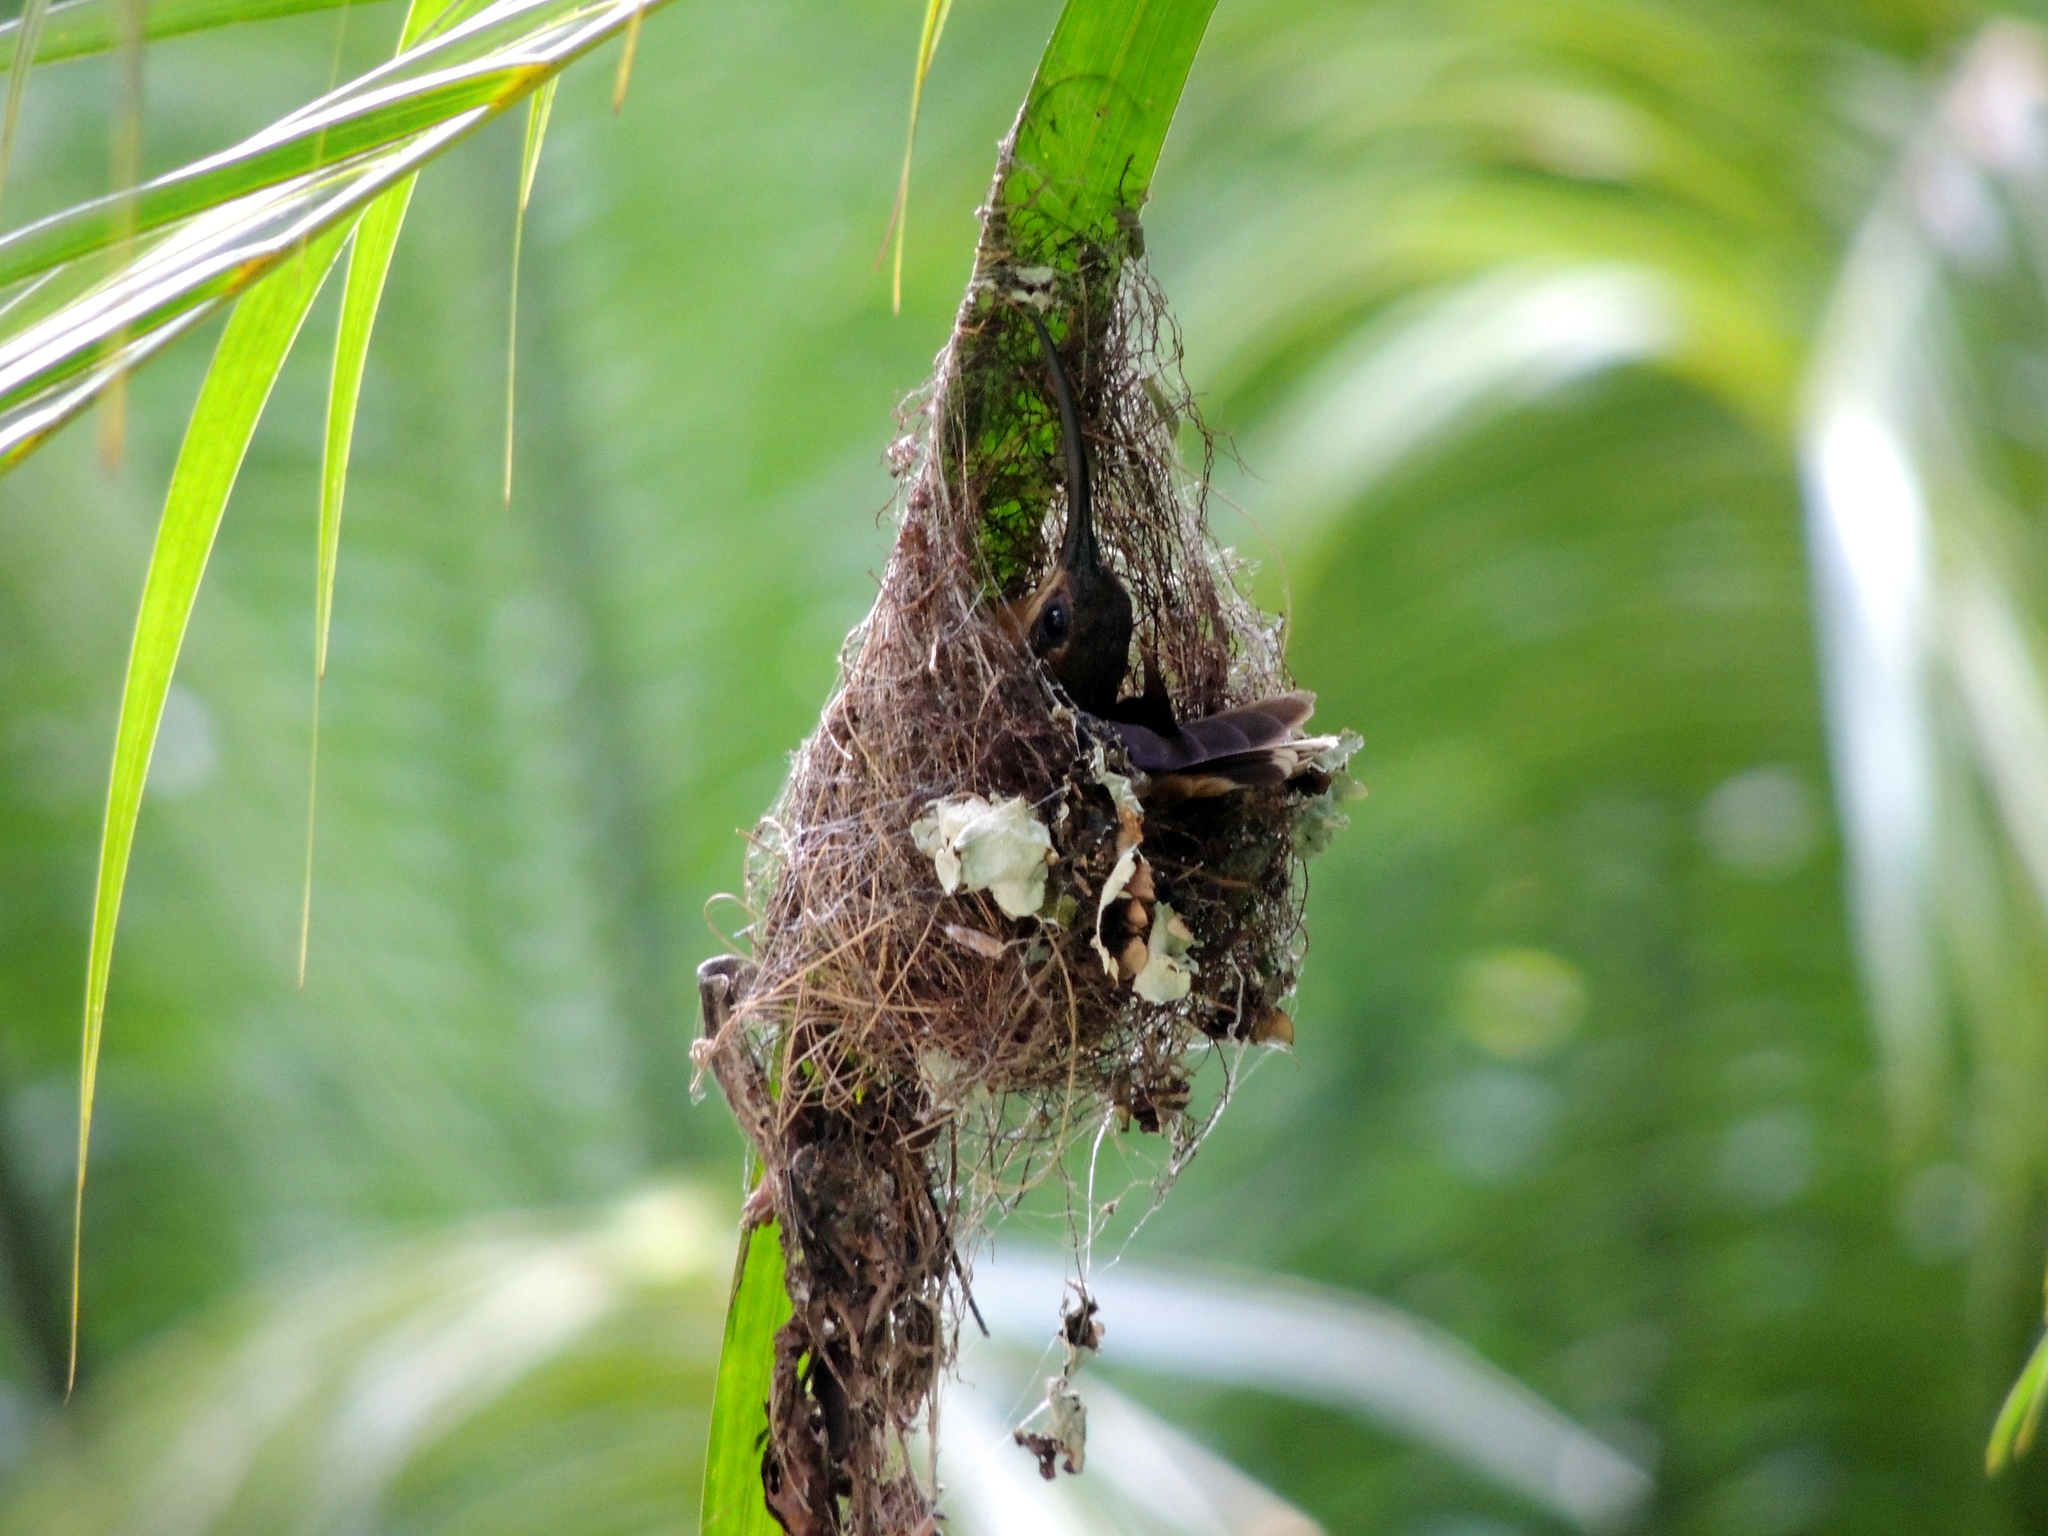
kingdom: Animalia
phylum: Chordata
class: Aves
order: Apodiformes
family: Trochilidae
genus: Glaucis
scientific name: Glaucis hirsutus
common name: Rufous-breasted hermit
